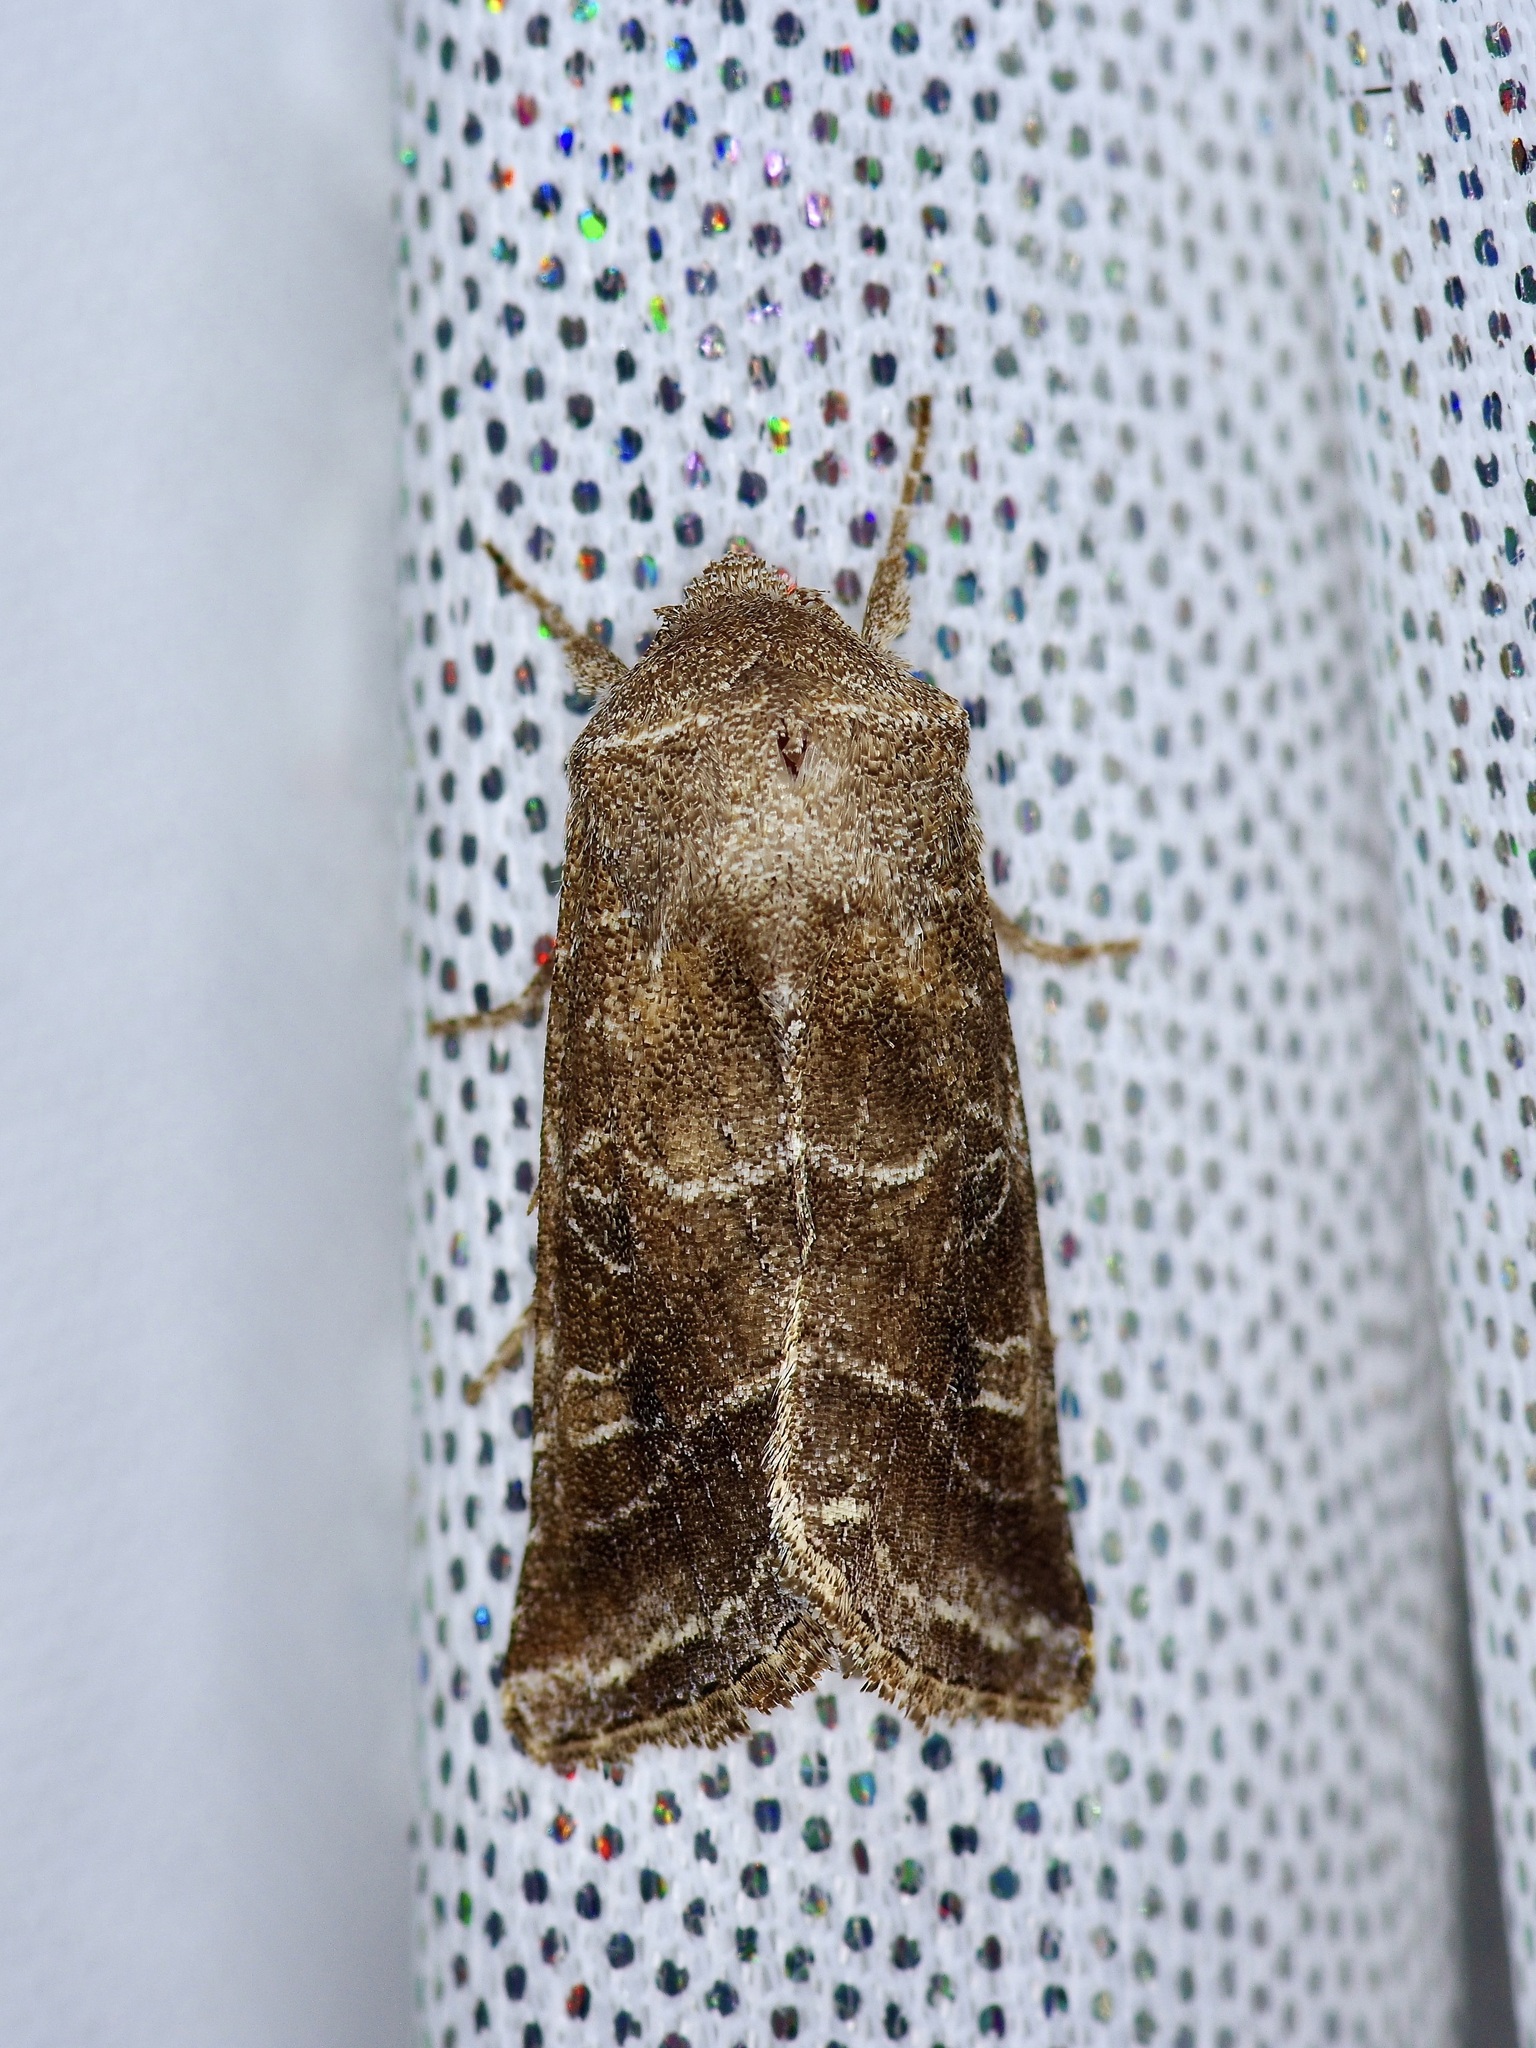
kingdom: Animalia
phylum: Arthropoda
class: Insecta
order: Lepidoptera
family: Noctuidae
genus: Lacinipolia
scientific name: Lacinipolia erecta
